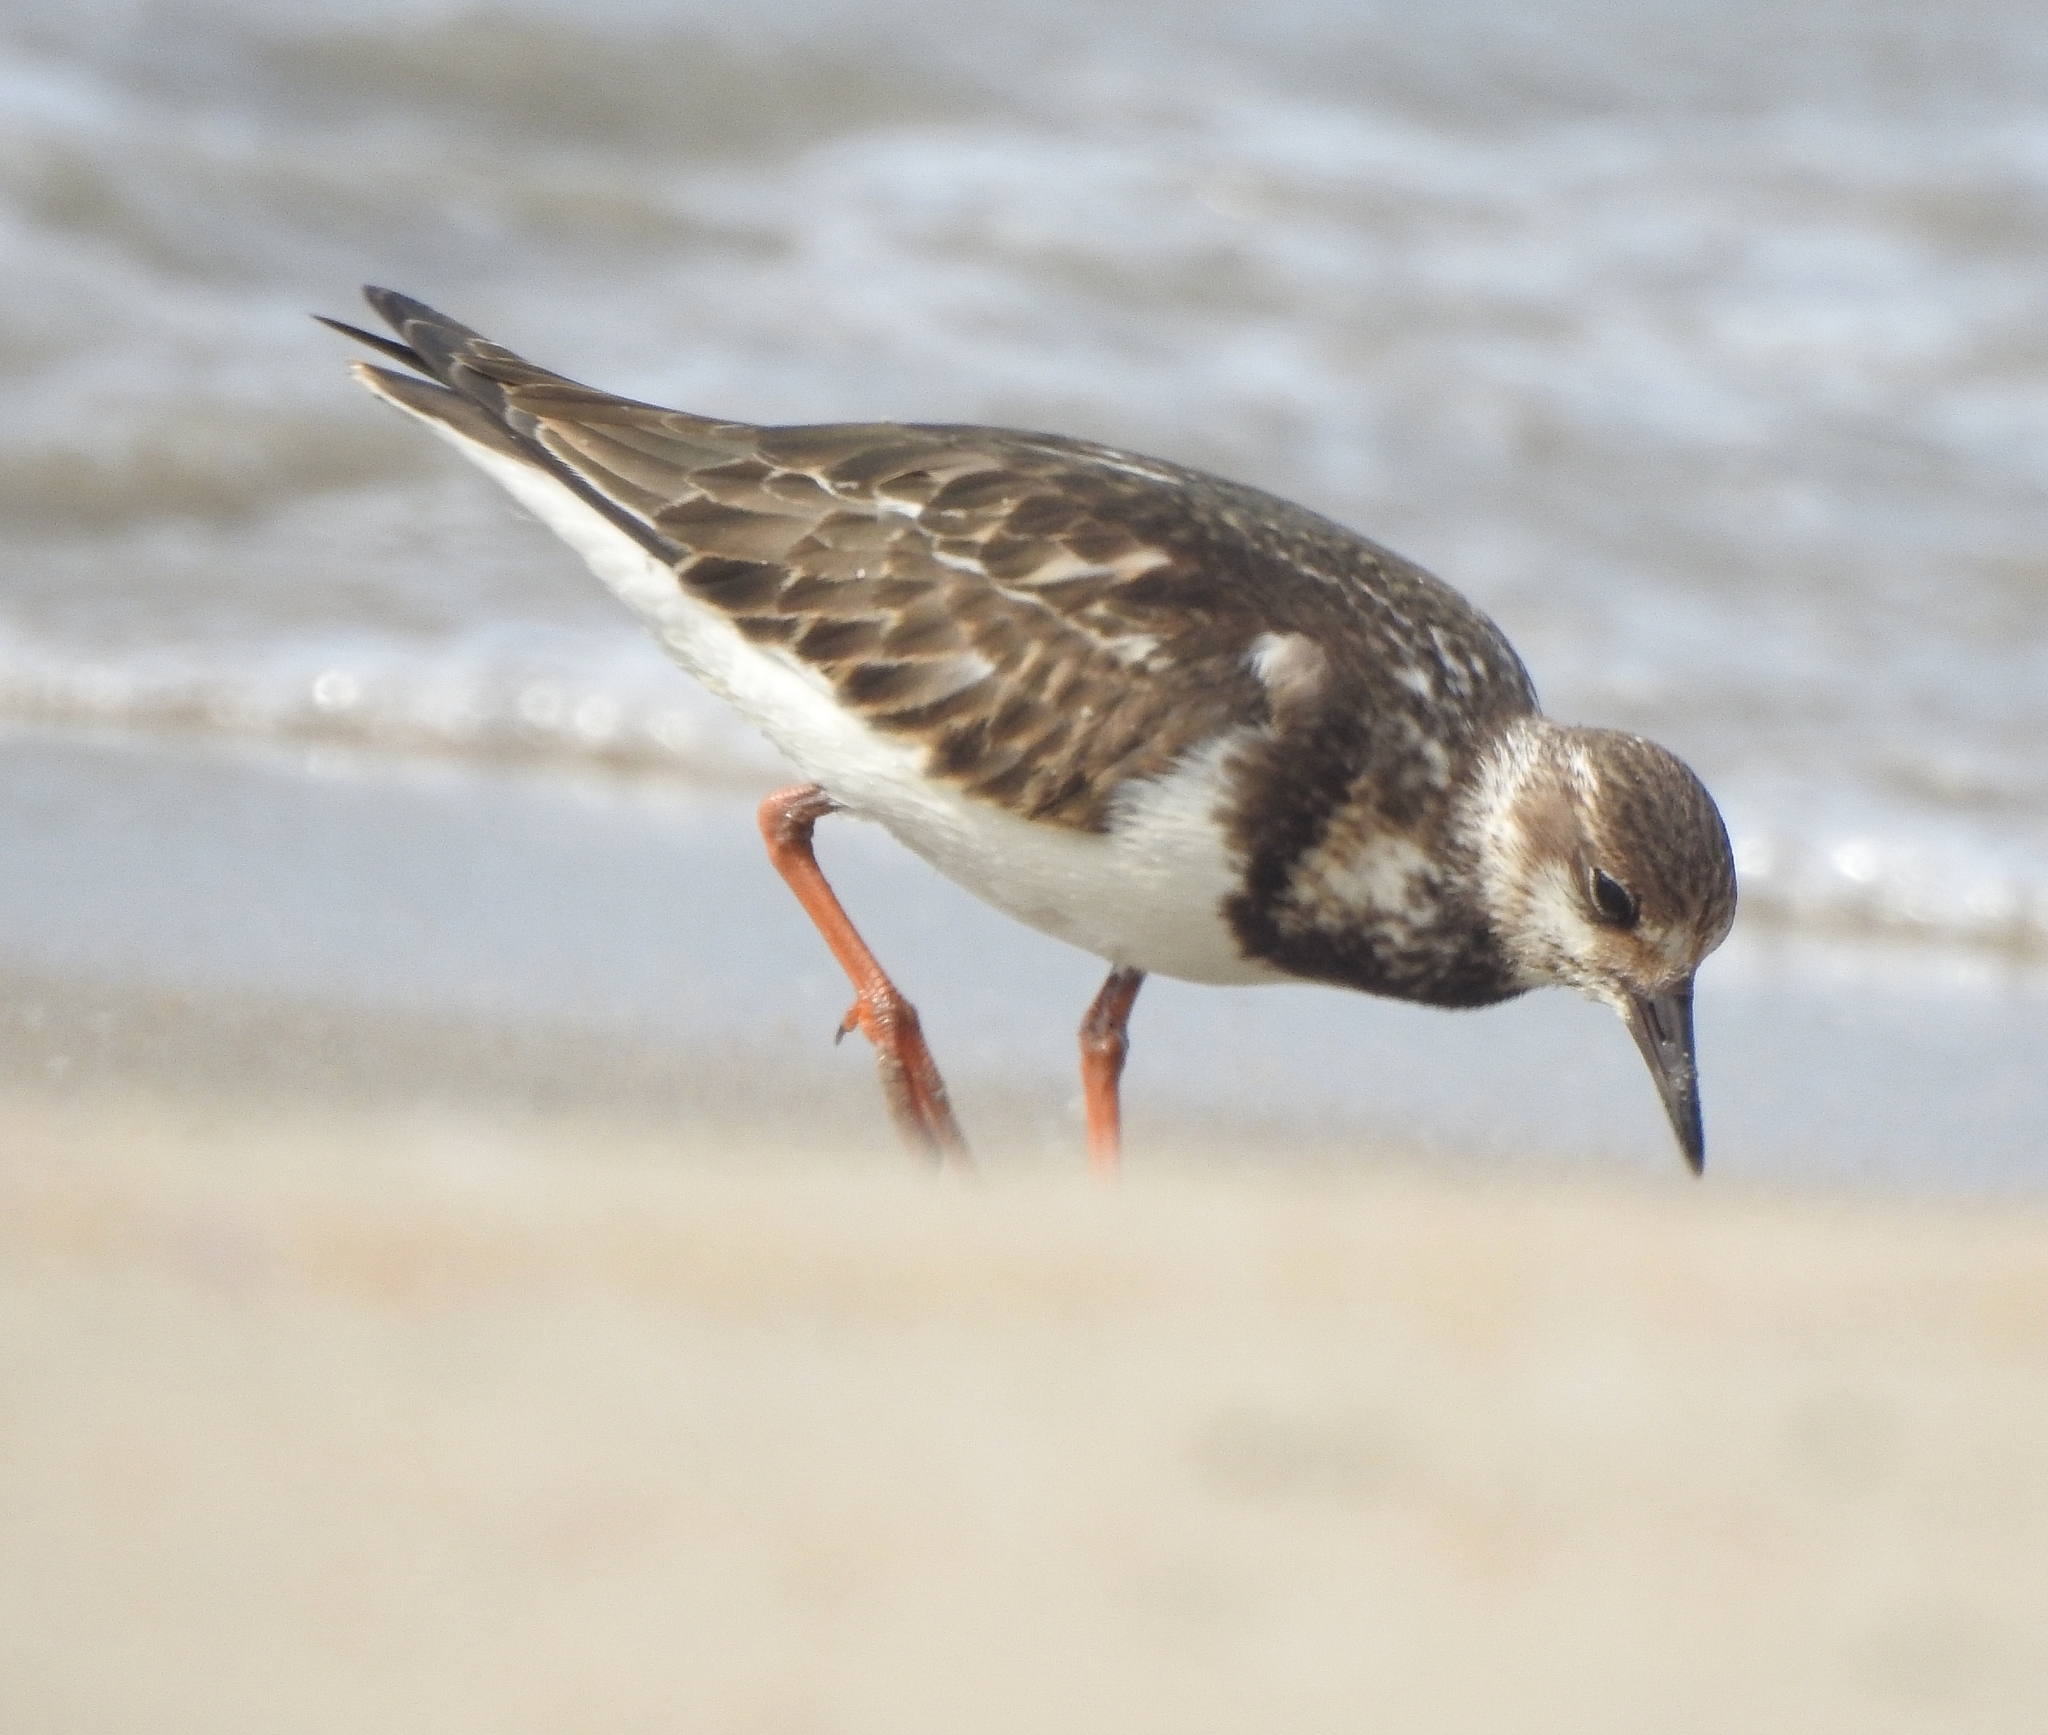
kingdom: Animalia
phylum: Chordata
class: Aves
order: Charadriiformes
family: Scolopacidae
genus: Arenaria
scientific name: Arenaria interpres
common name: Ruddy turnstone
